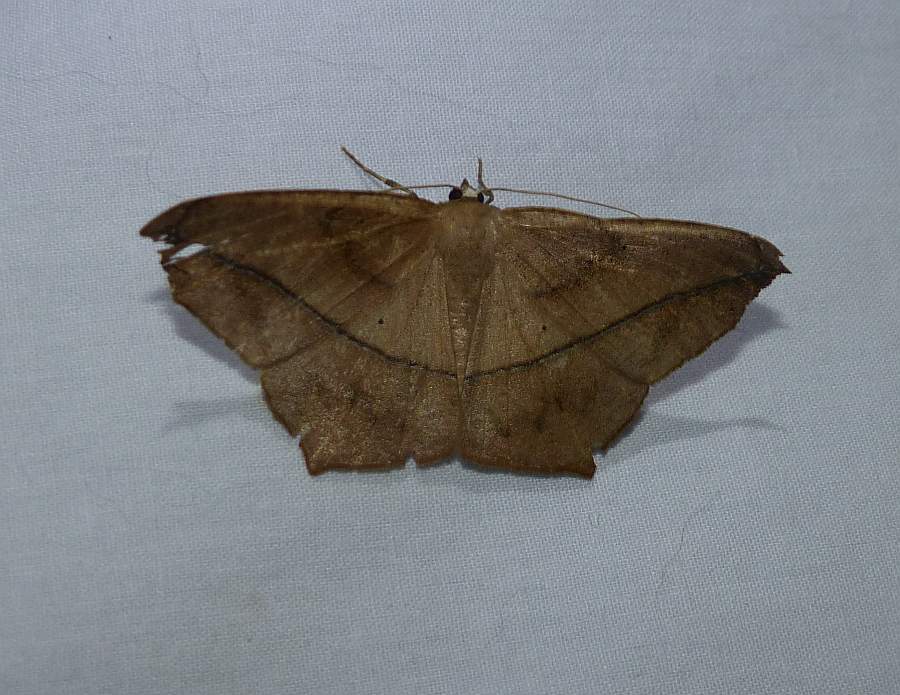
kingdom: Animalia
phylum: Arthropoda
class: Insecta
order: Lepidoptera
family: Geometridae
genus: Prochoerodes
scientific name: Prochoerodes lineola
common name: Large maple spanworm
